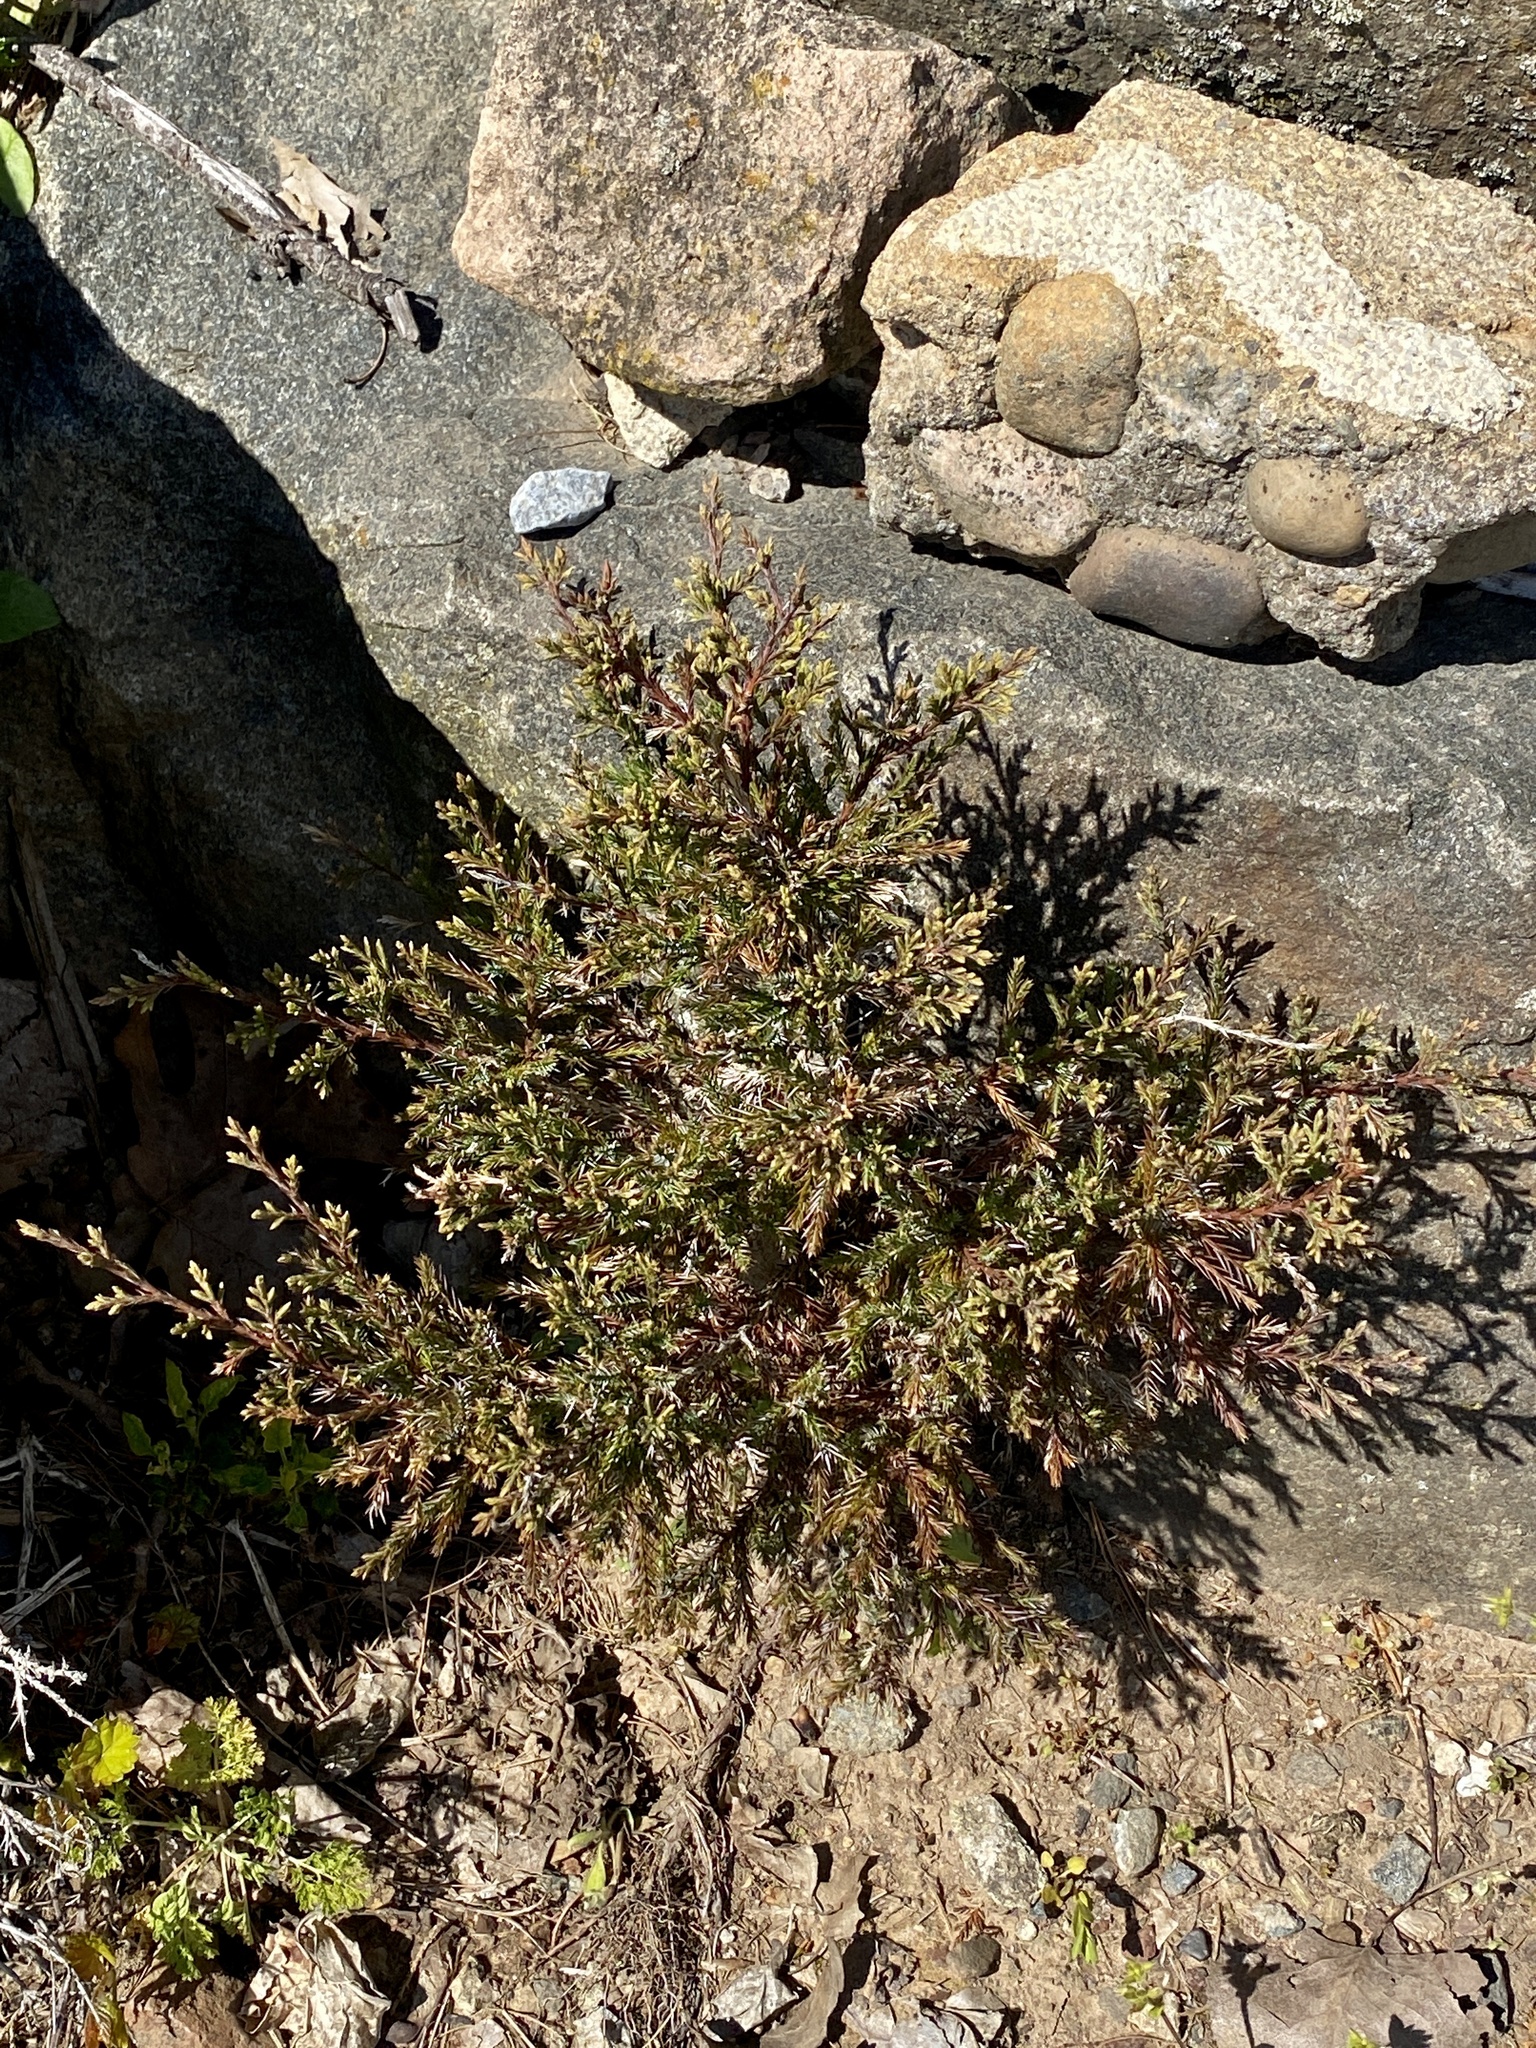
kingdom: Plantae
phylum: Tracheophyta
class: Pinopsida
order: Pinales
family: Cupressaceae
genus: Juniperus
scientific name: Juniperus virginiana
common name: Red juniper
